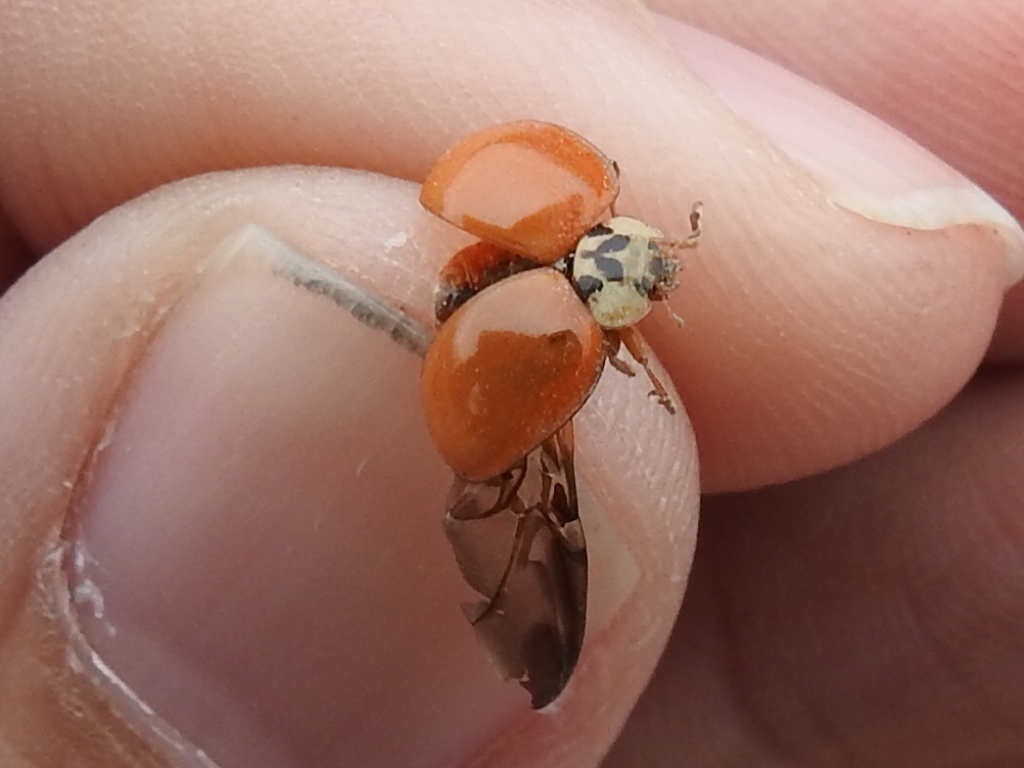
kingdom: Animalia
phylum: Arthropoda
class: Insecta
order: Coleoptera
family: Coccinellidae
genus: Harmonia
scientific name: Harmonia axyridis
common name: Harlequin ladybird
